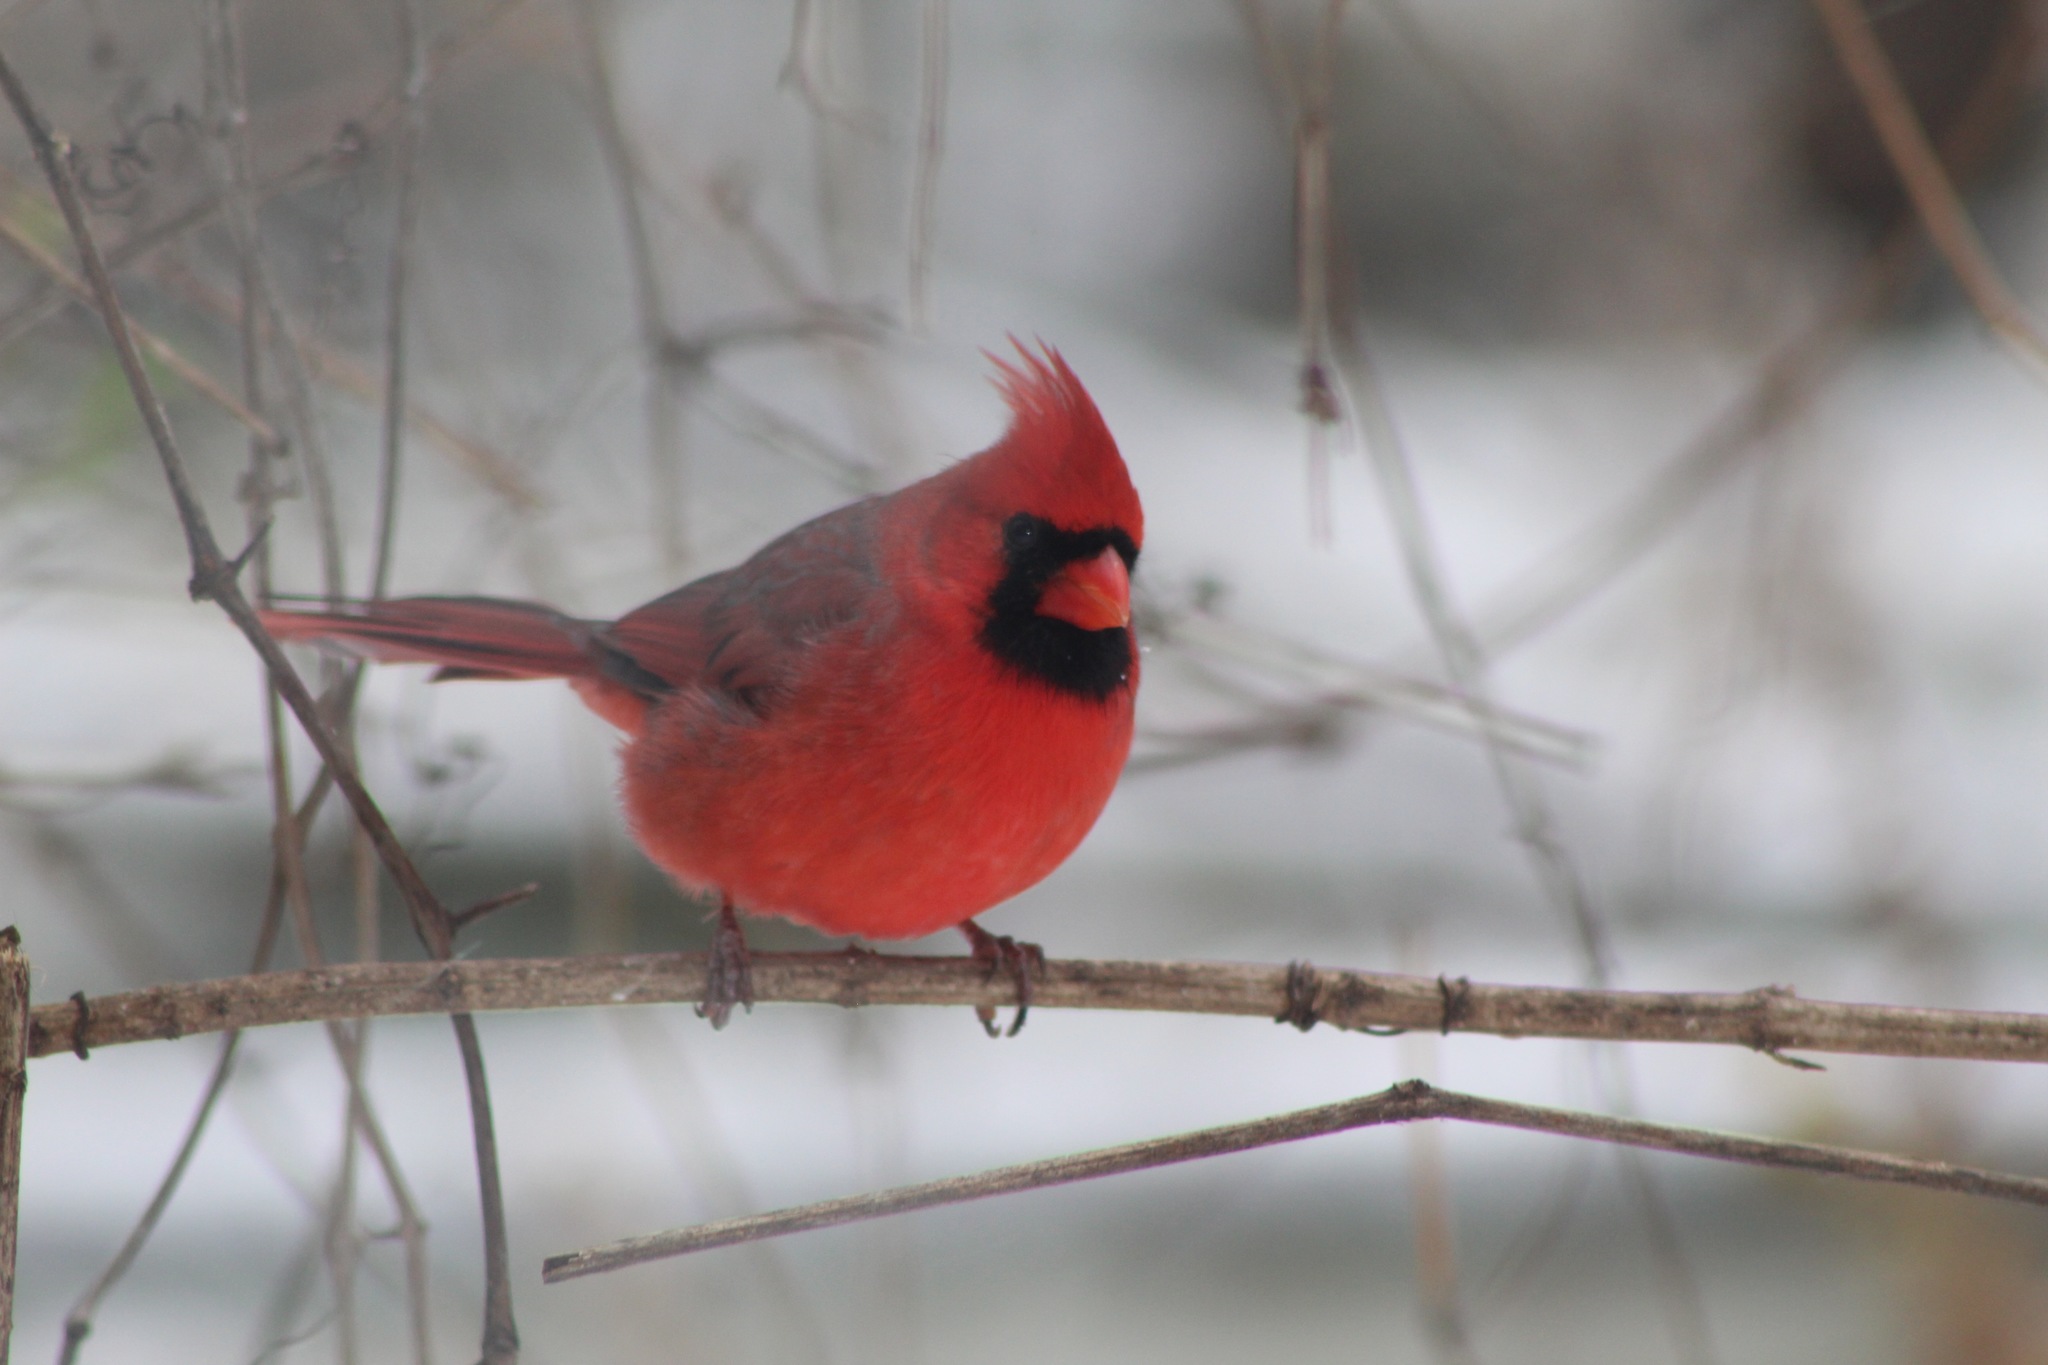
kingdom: Animalia
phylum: Chordata
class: Aves
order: Passeriformes
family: Cardinalidae
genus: Cardinalis
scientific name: Cardinalis cardinalis
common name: Northern cardinal
